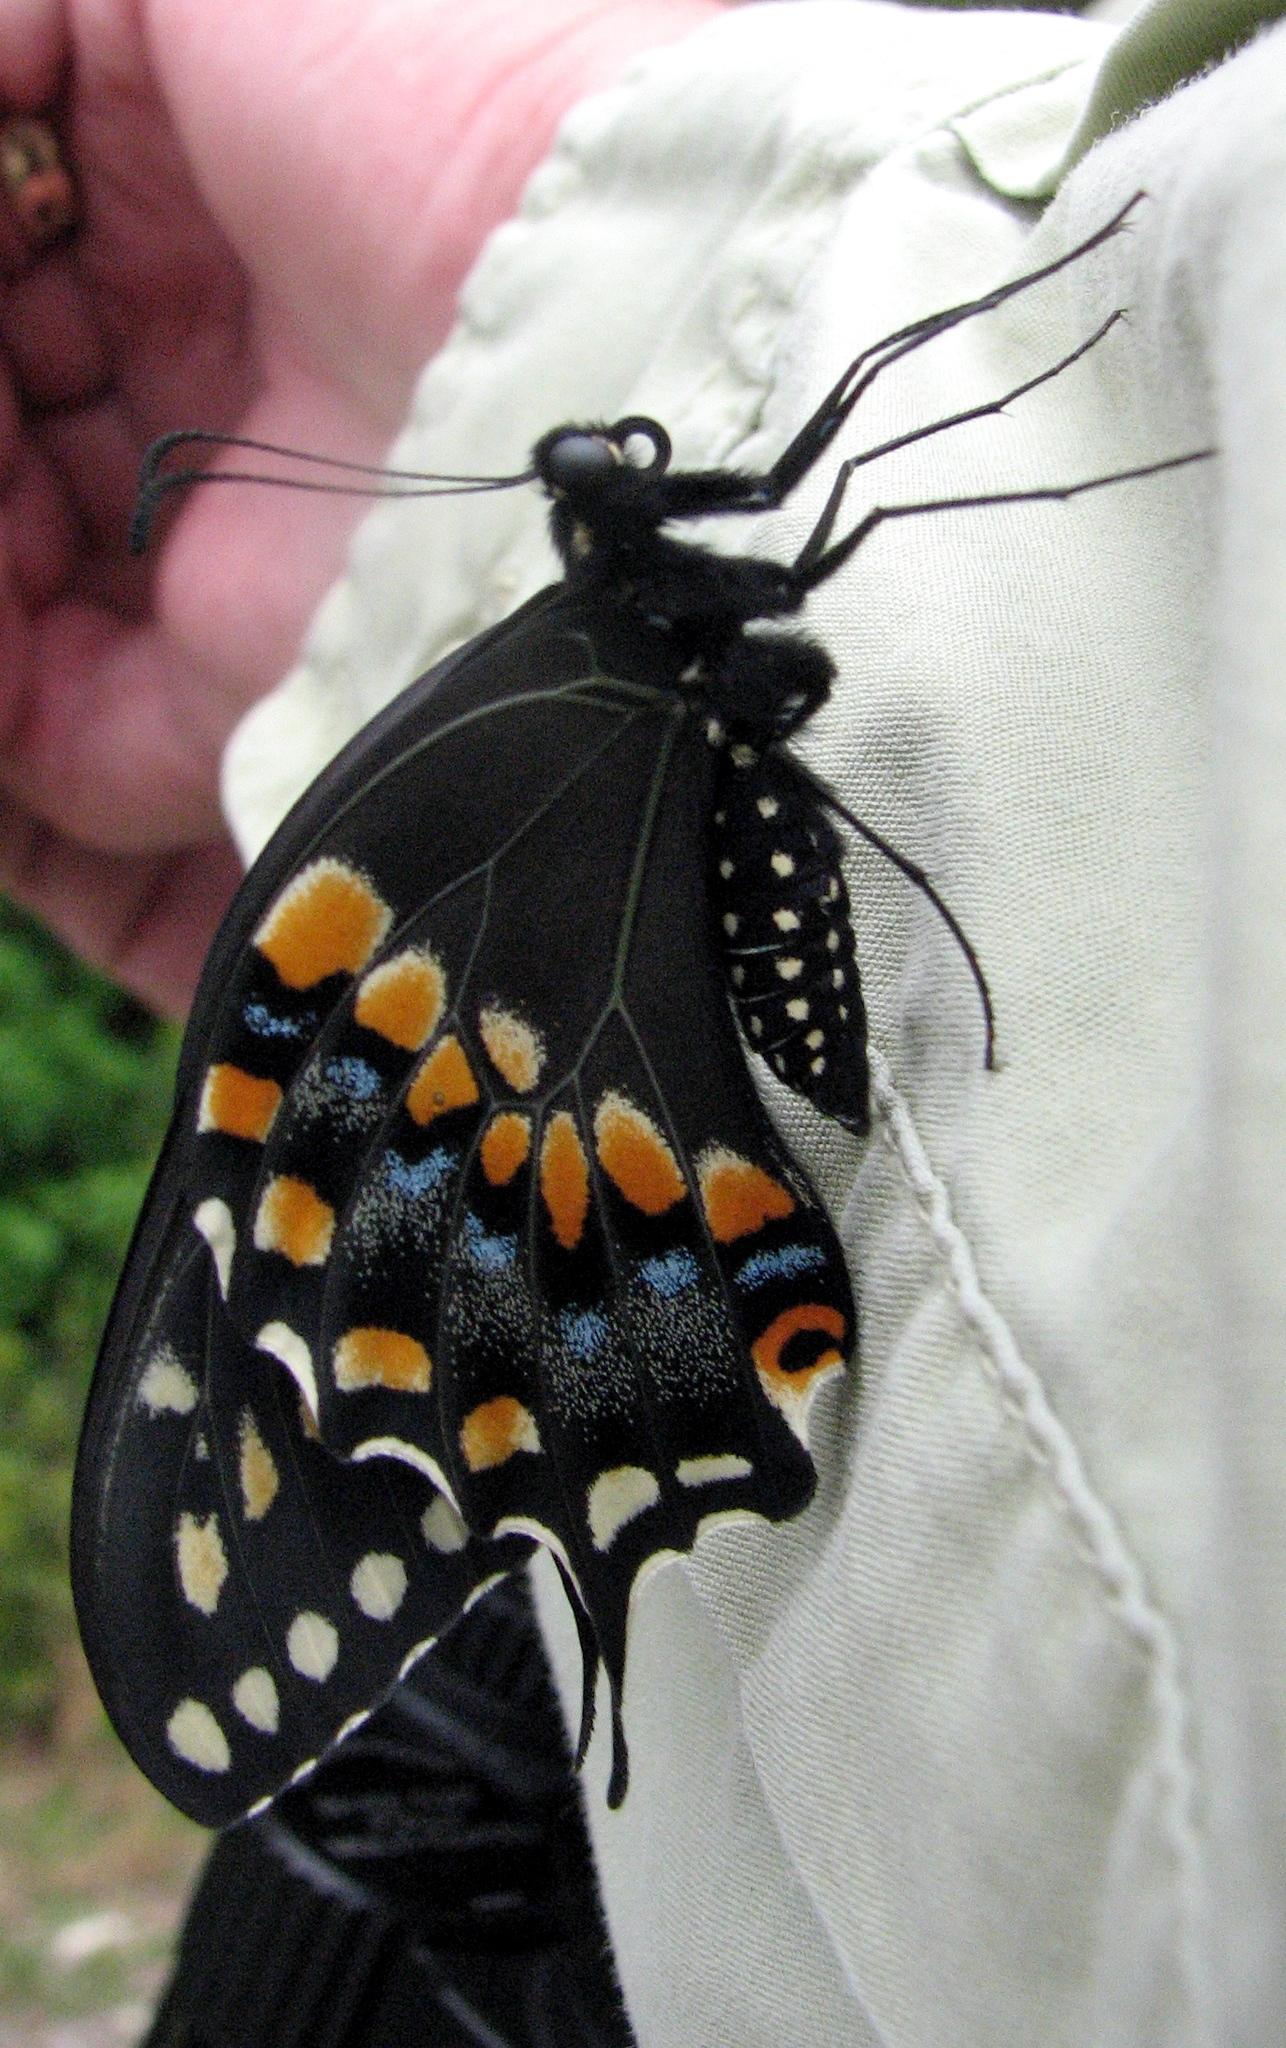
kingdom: Animalia
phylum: Arthropoda
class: Insecta
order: Lepidoptera
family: Papilionidae
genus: Papilio
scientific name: Papilio polyxenes
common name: Black swallowtail
